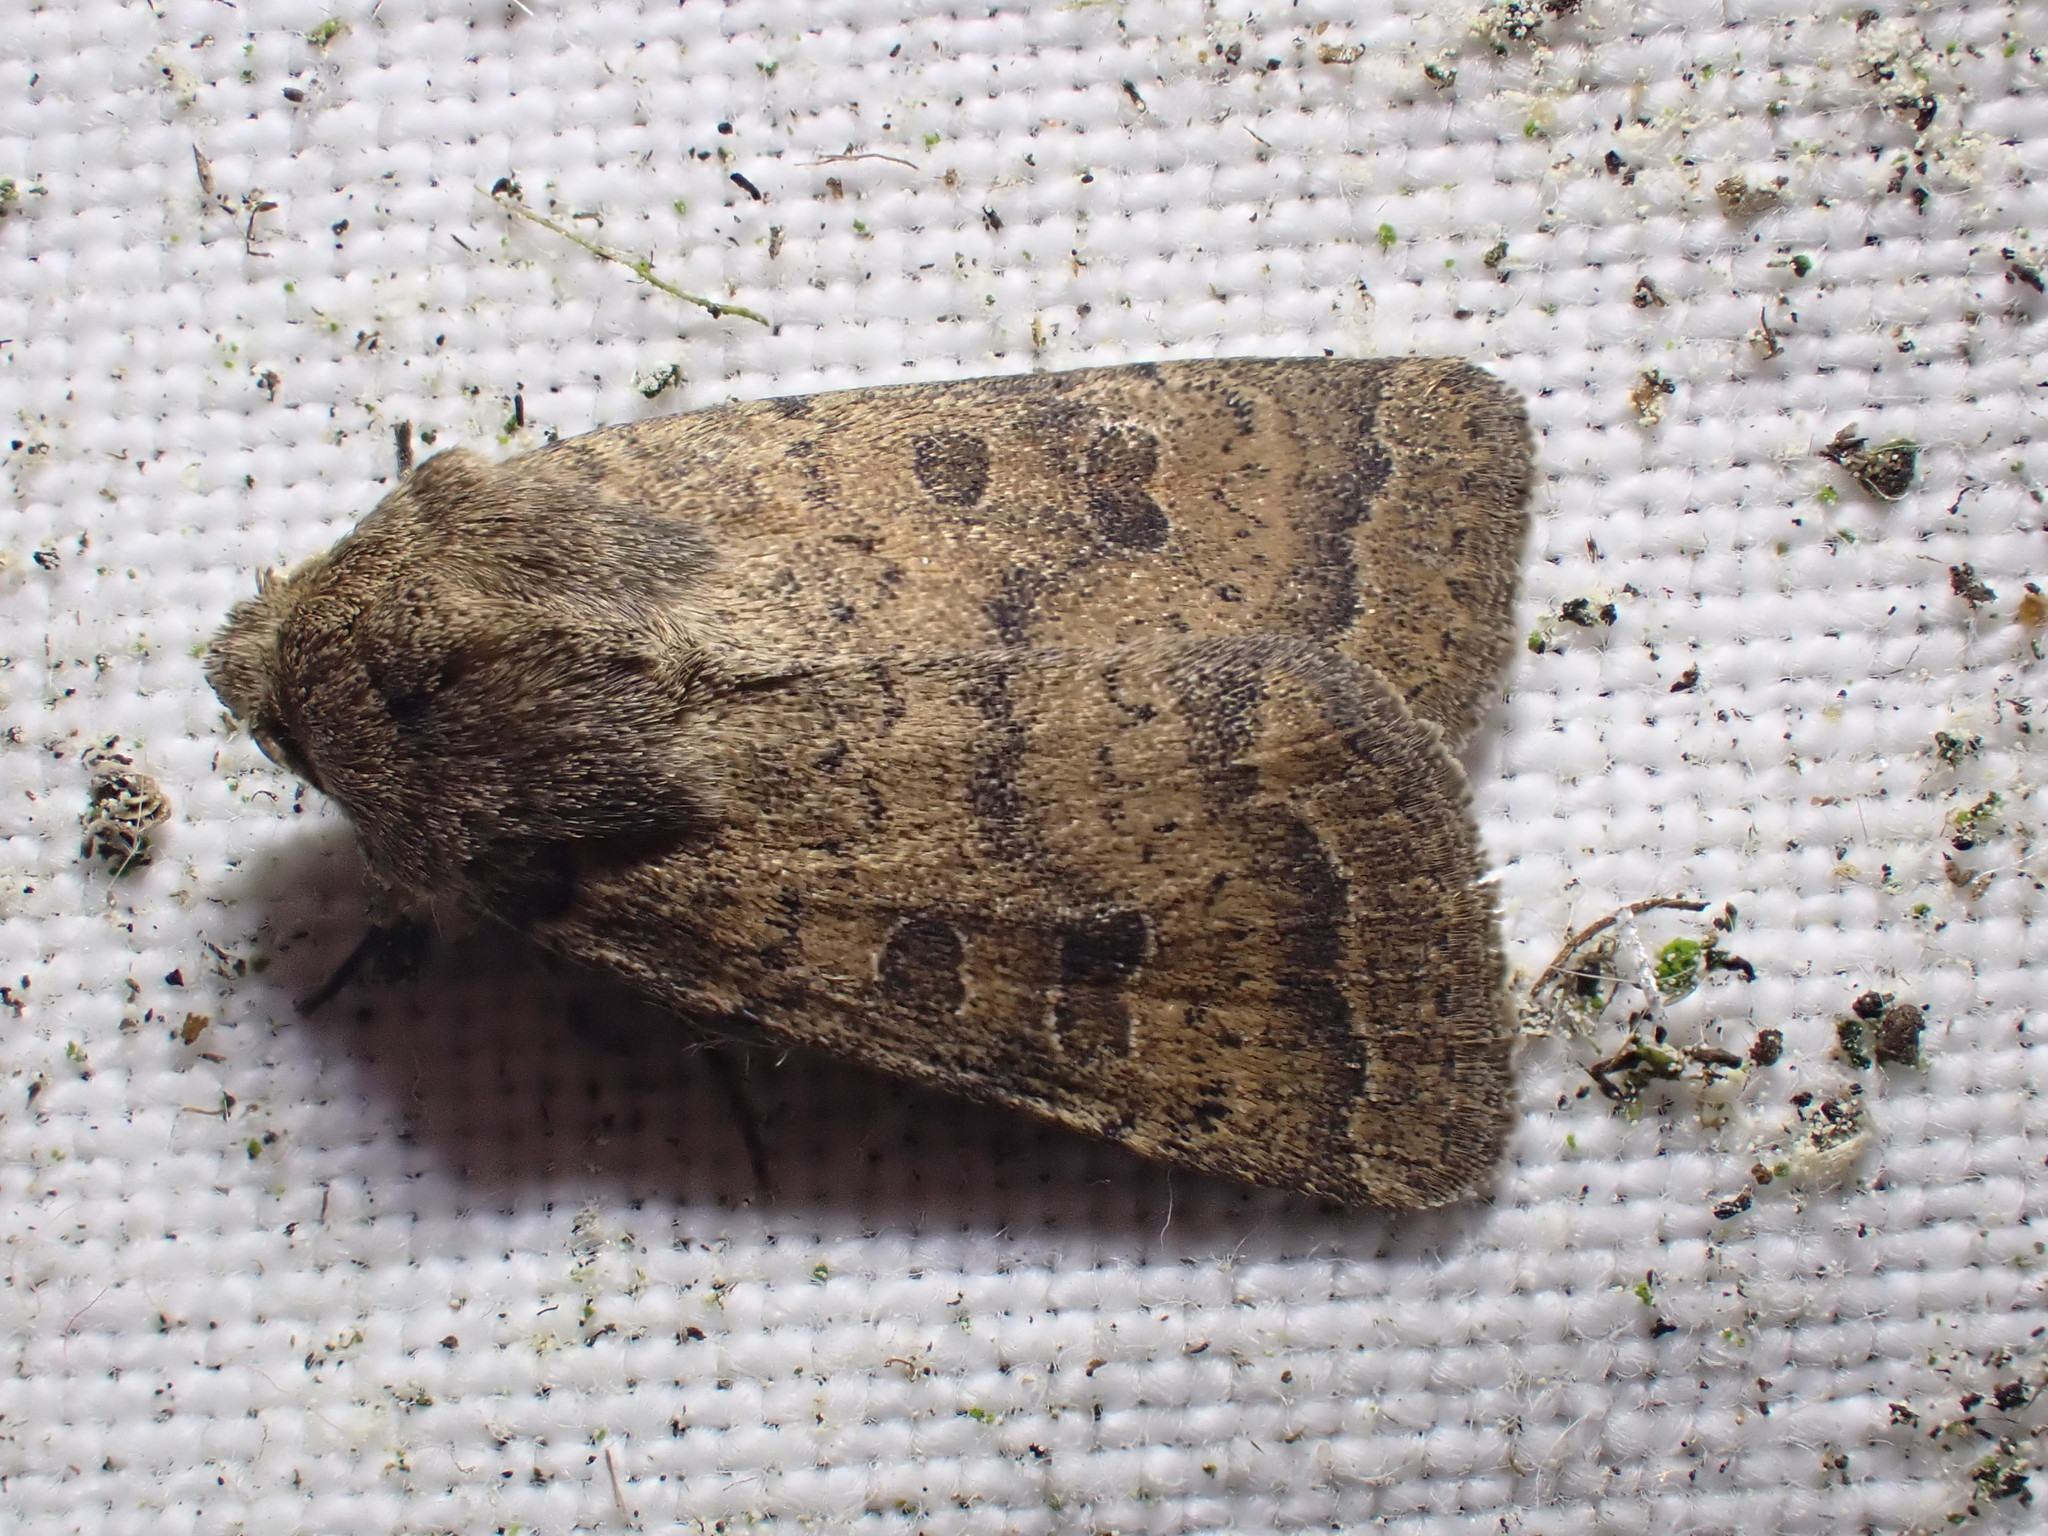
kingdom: Animalia
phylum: Arthropoda
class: Insecta
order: Lepidoptera
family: Noctuidae
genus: Hoplodrina
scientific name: Hoplodrina octogenaria
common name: Uncertain
